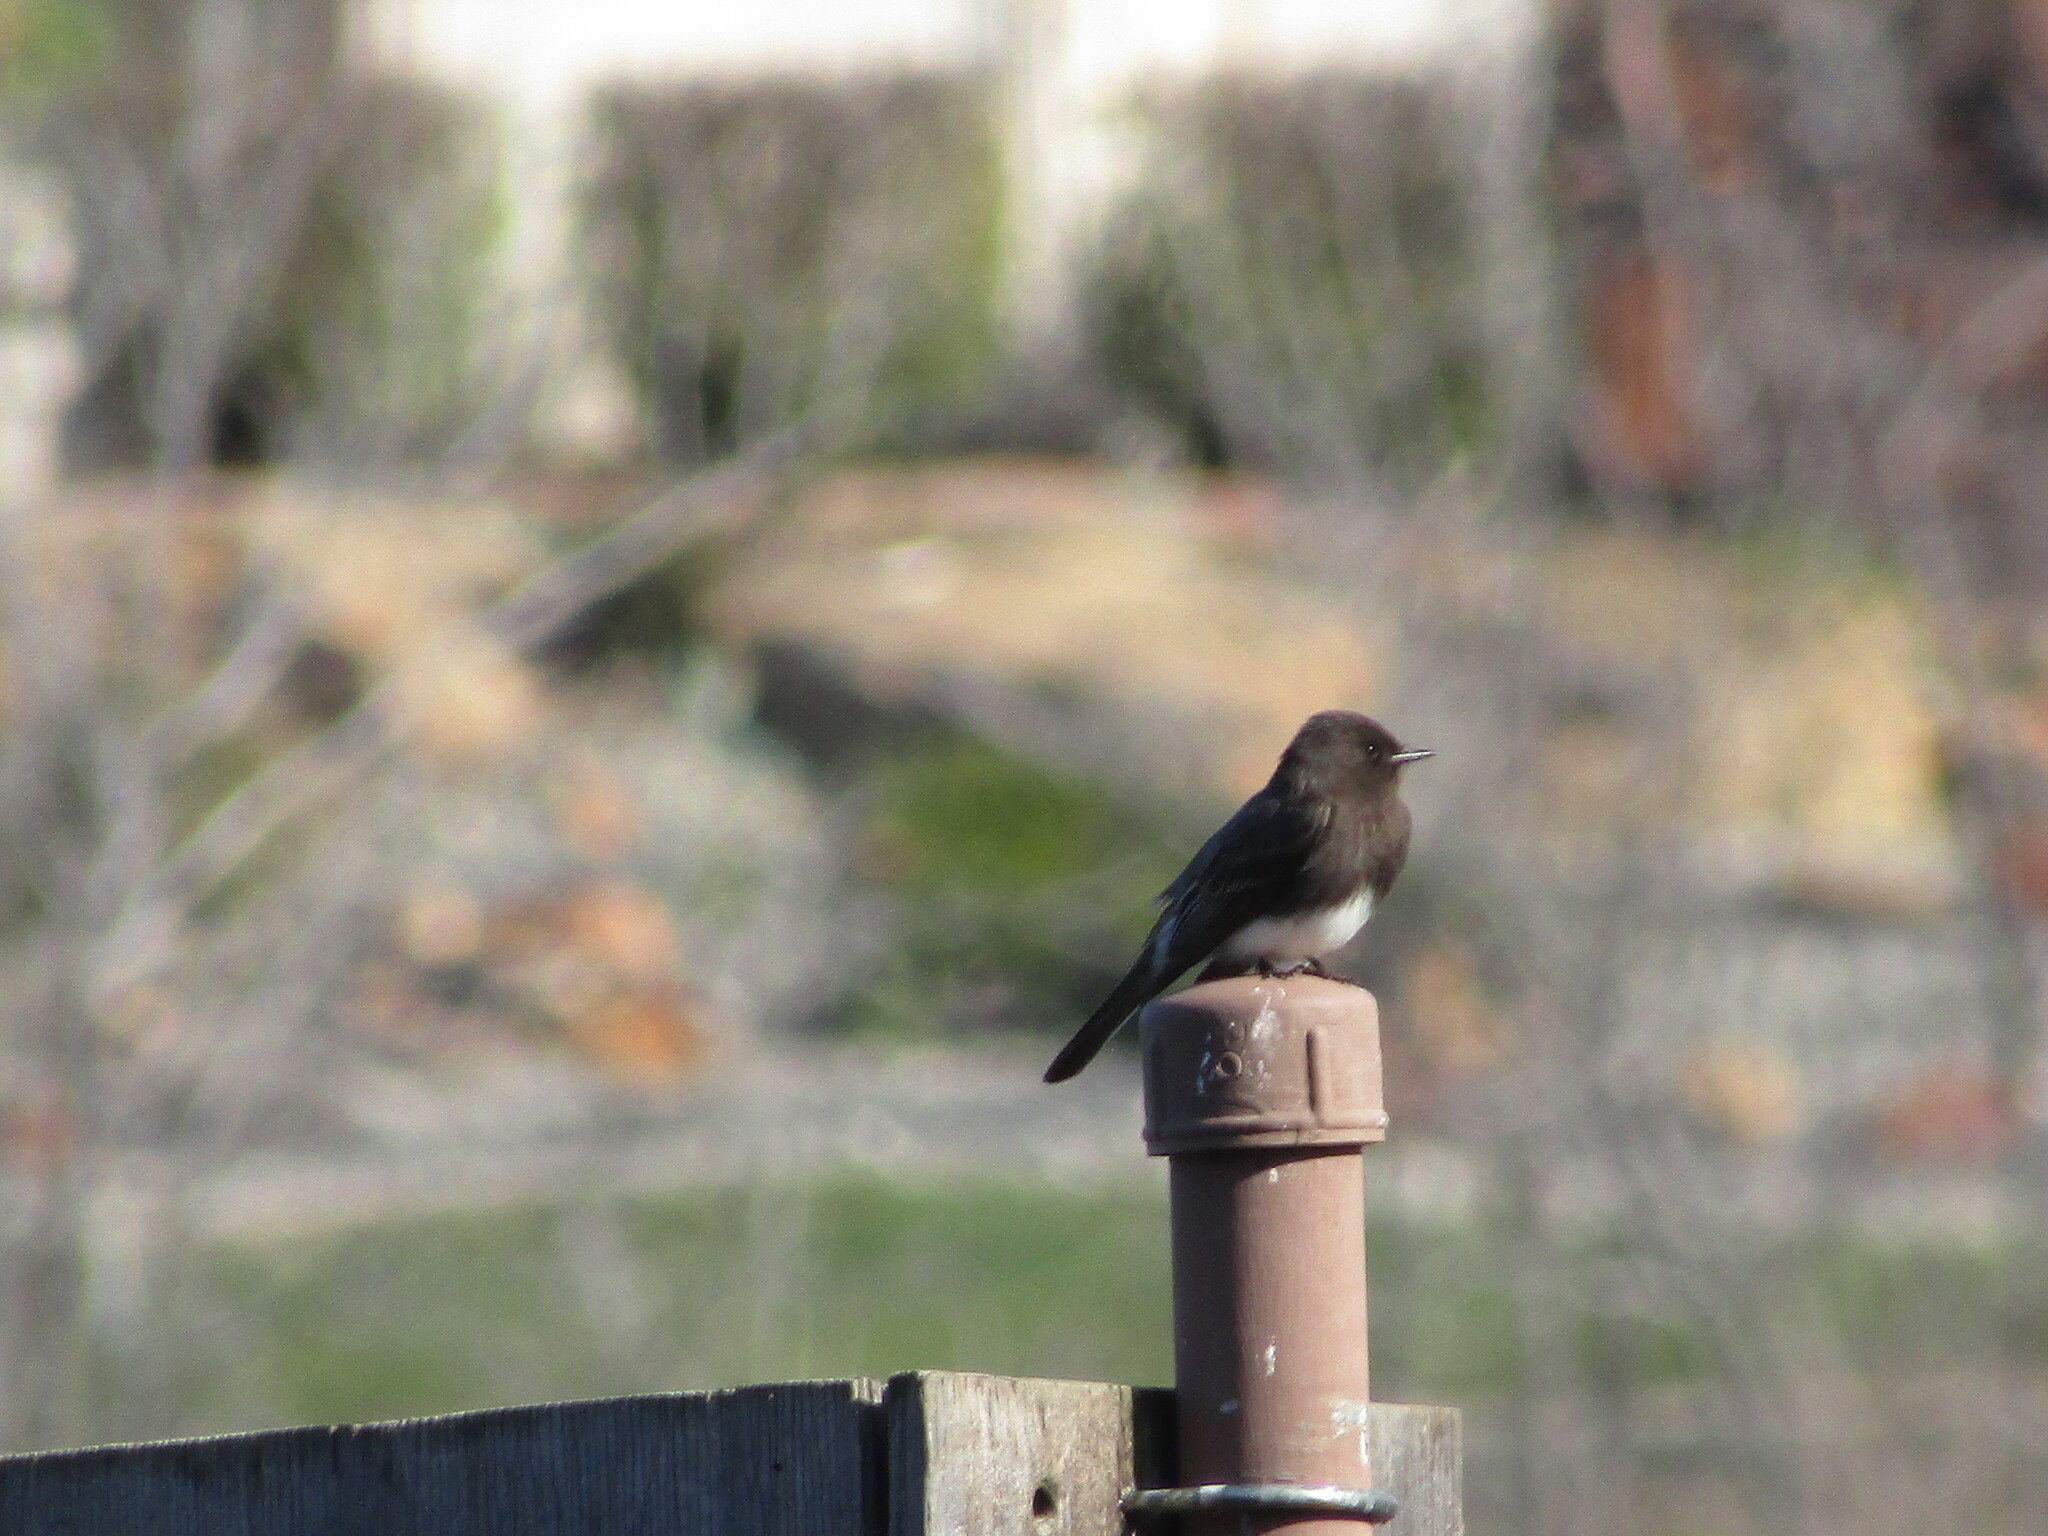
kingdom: Animalia
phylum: Chordata
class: Aves
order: Passeriformes
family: Tyrannidae
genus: Sayornis
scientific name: Sayornis nigricans
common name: Black phoebe
